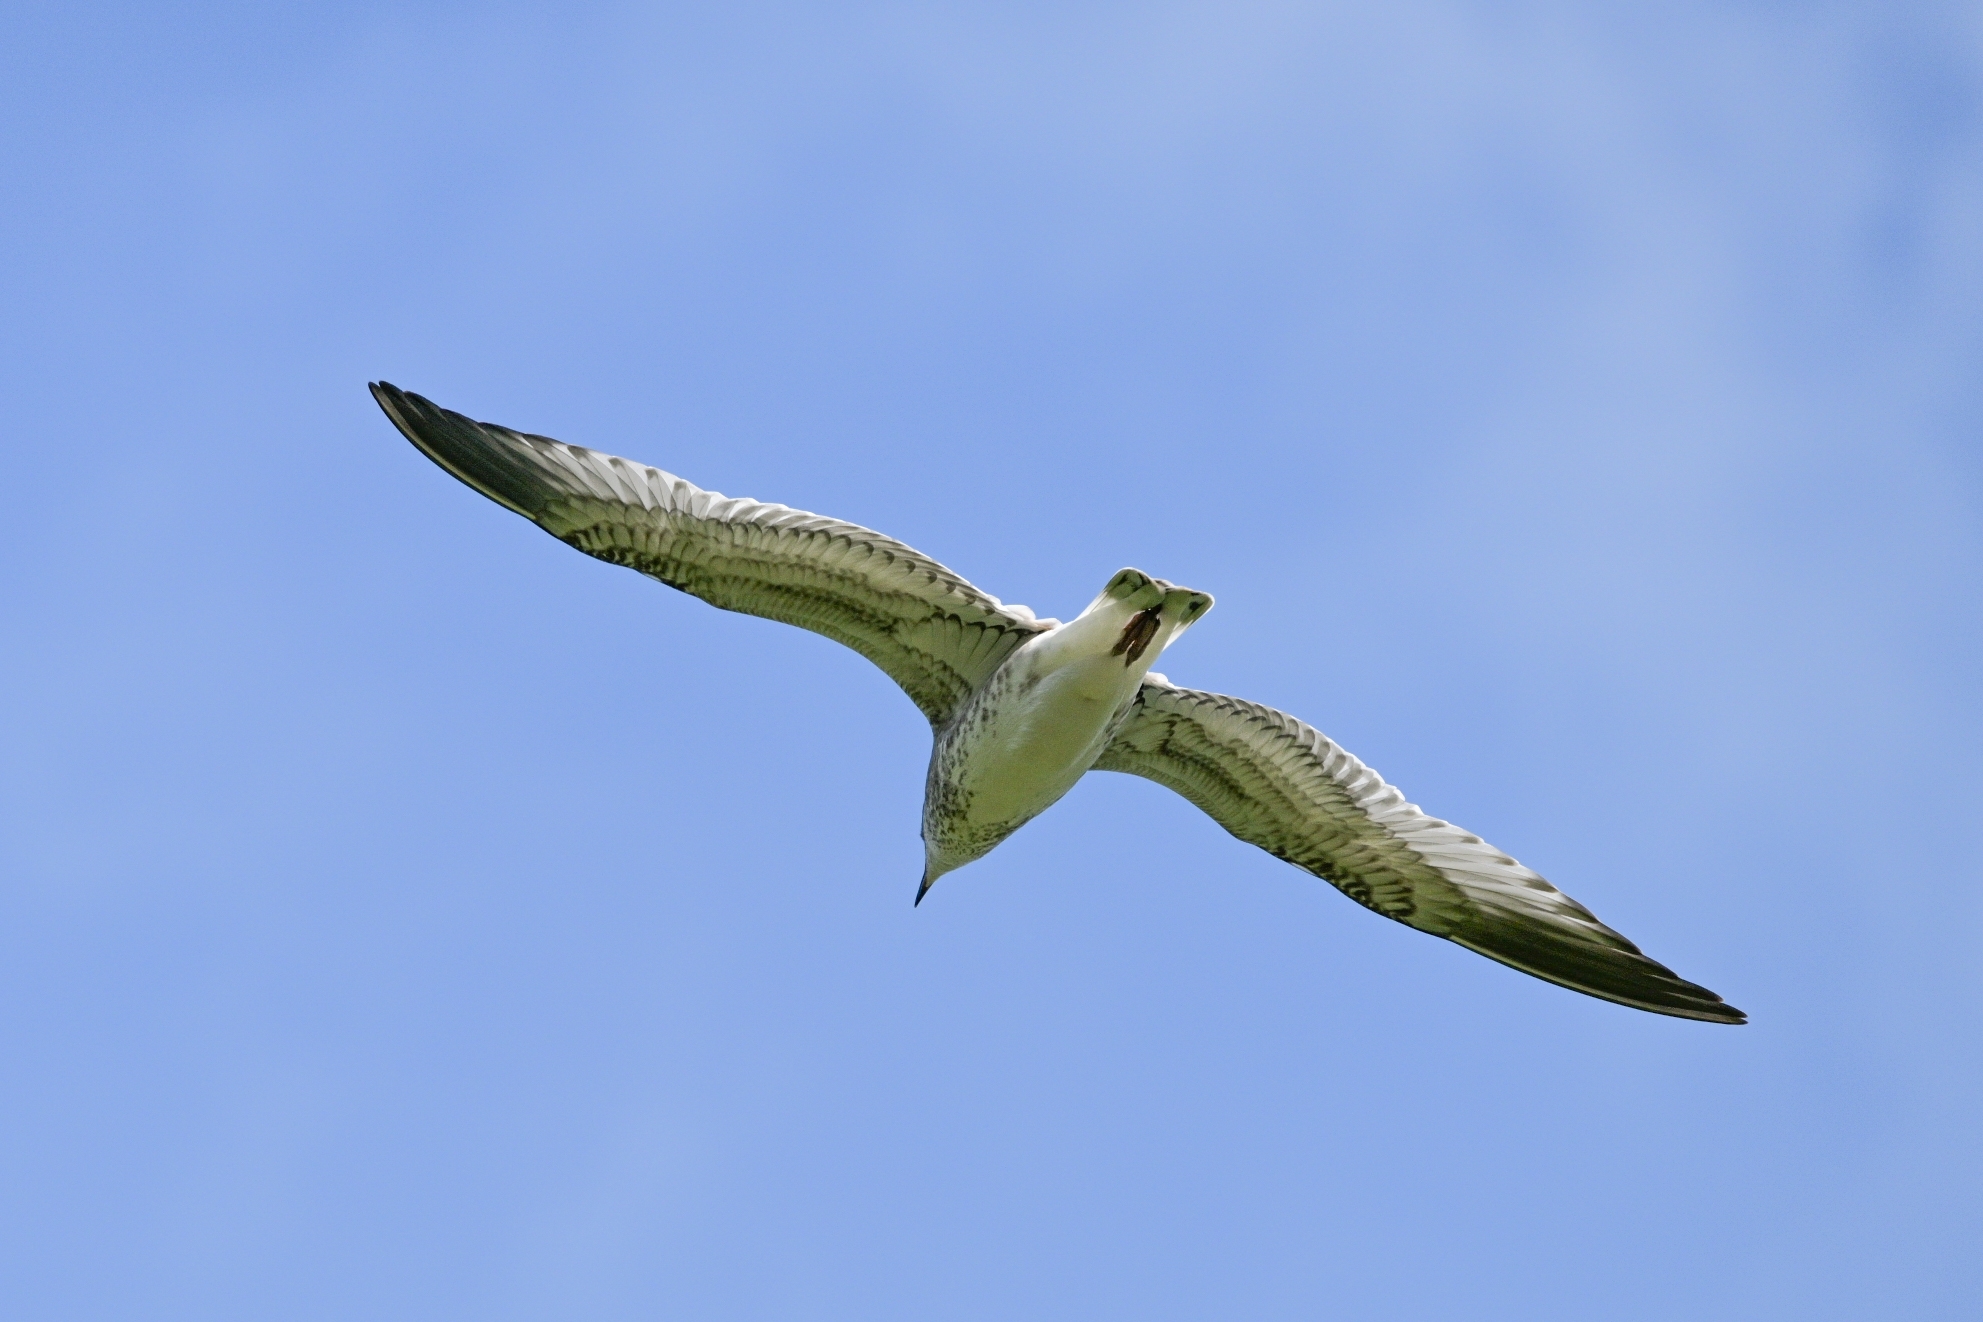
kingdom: Animalia
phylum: Chordata
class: Aves
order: Charadriiformes
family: Laridae
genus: Larus
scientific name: Larus canus
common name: Mew gull
